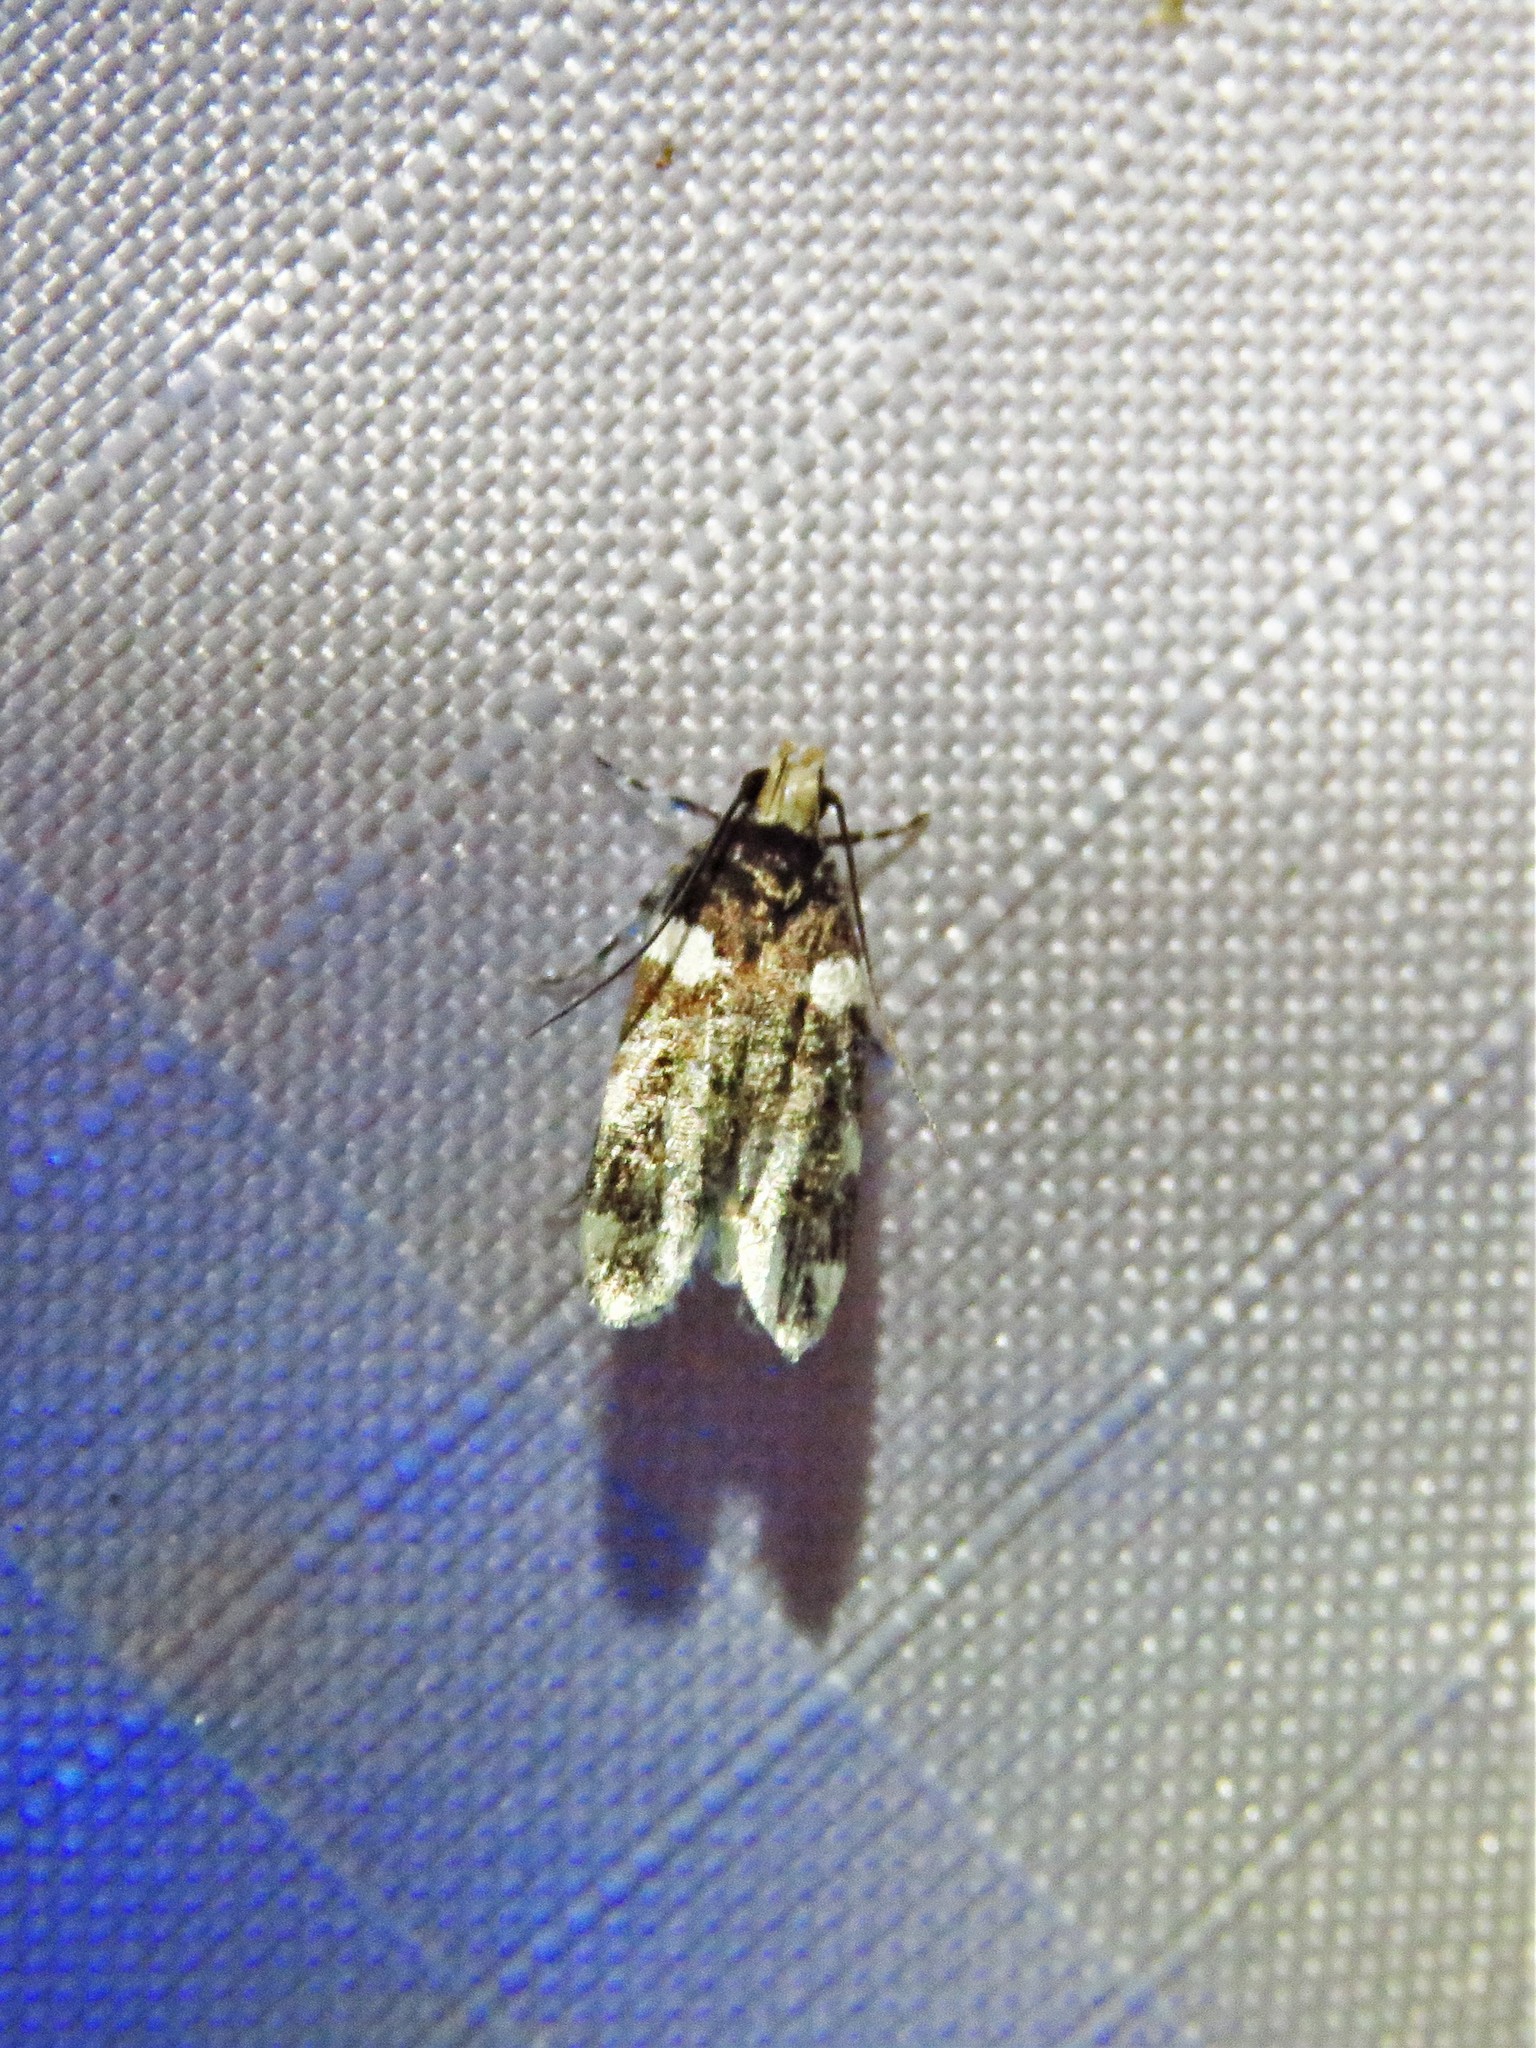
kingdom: Animalia
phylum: Arthropoda
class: Insecta
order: Lepidoptera
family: Gelechiidae
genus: Fascista
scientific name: Fascista cercerisella
